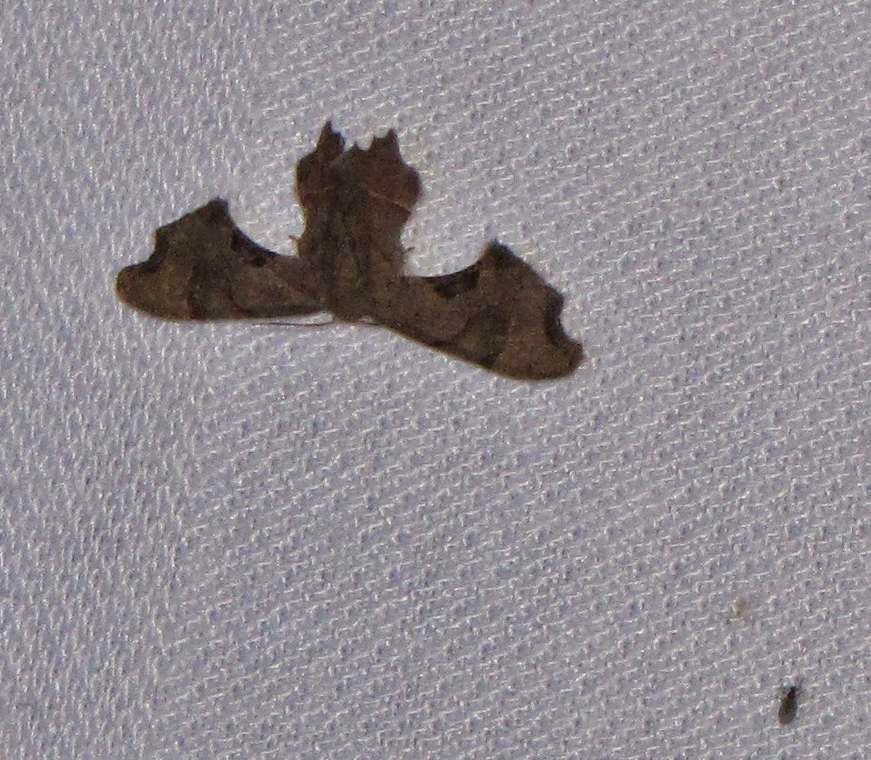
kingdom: Animalia
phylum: Arthropoda
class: Insecta
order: Lepidoptera
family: Uraniidae
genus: Epiplema
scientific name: Epiplema Calledapteryx dryopterata
